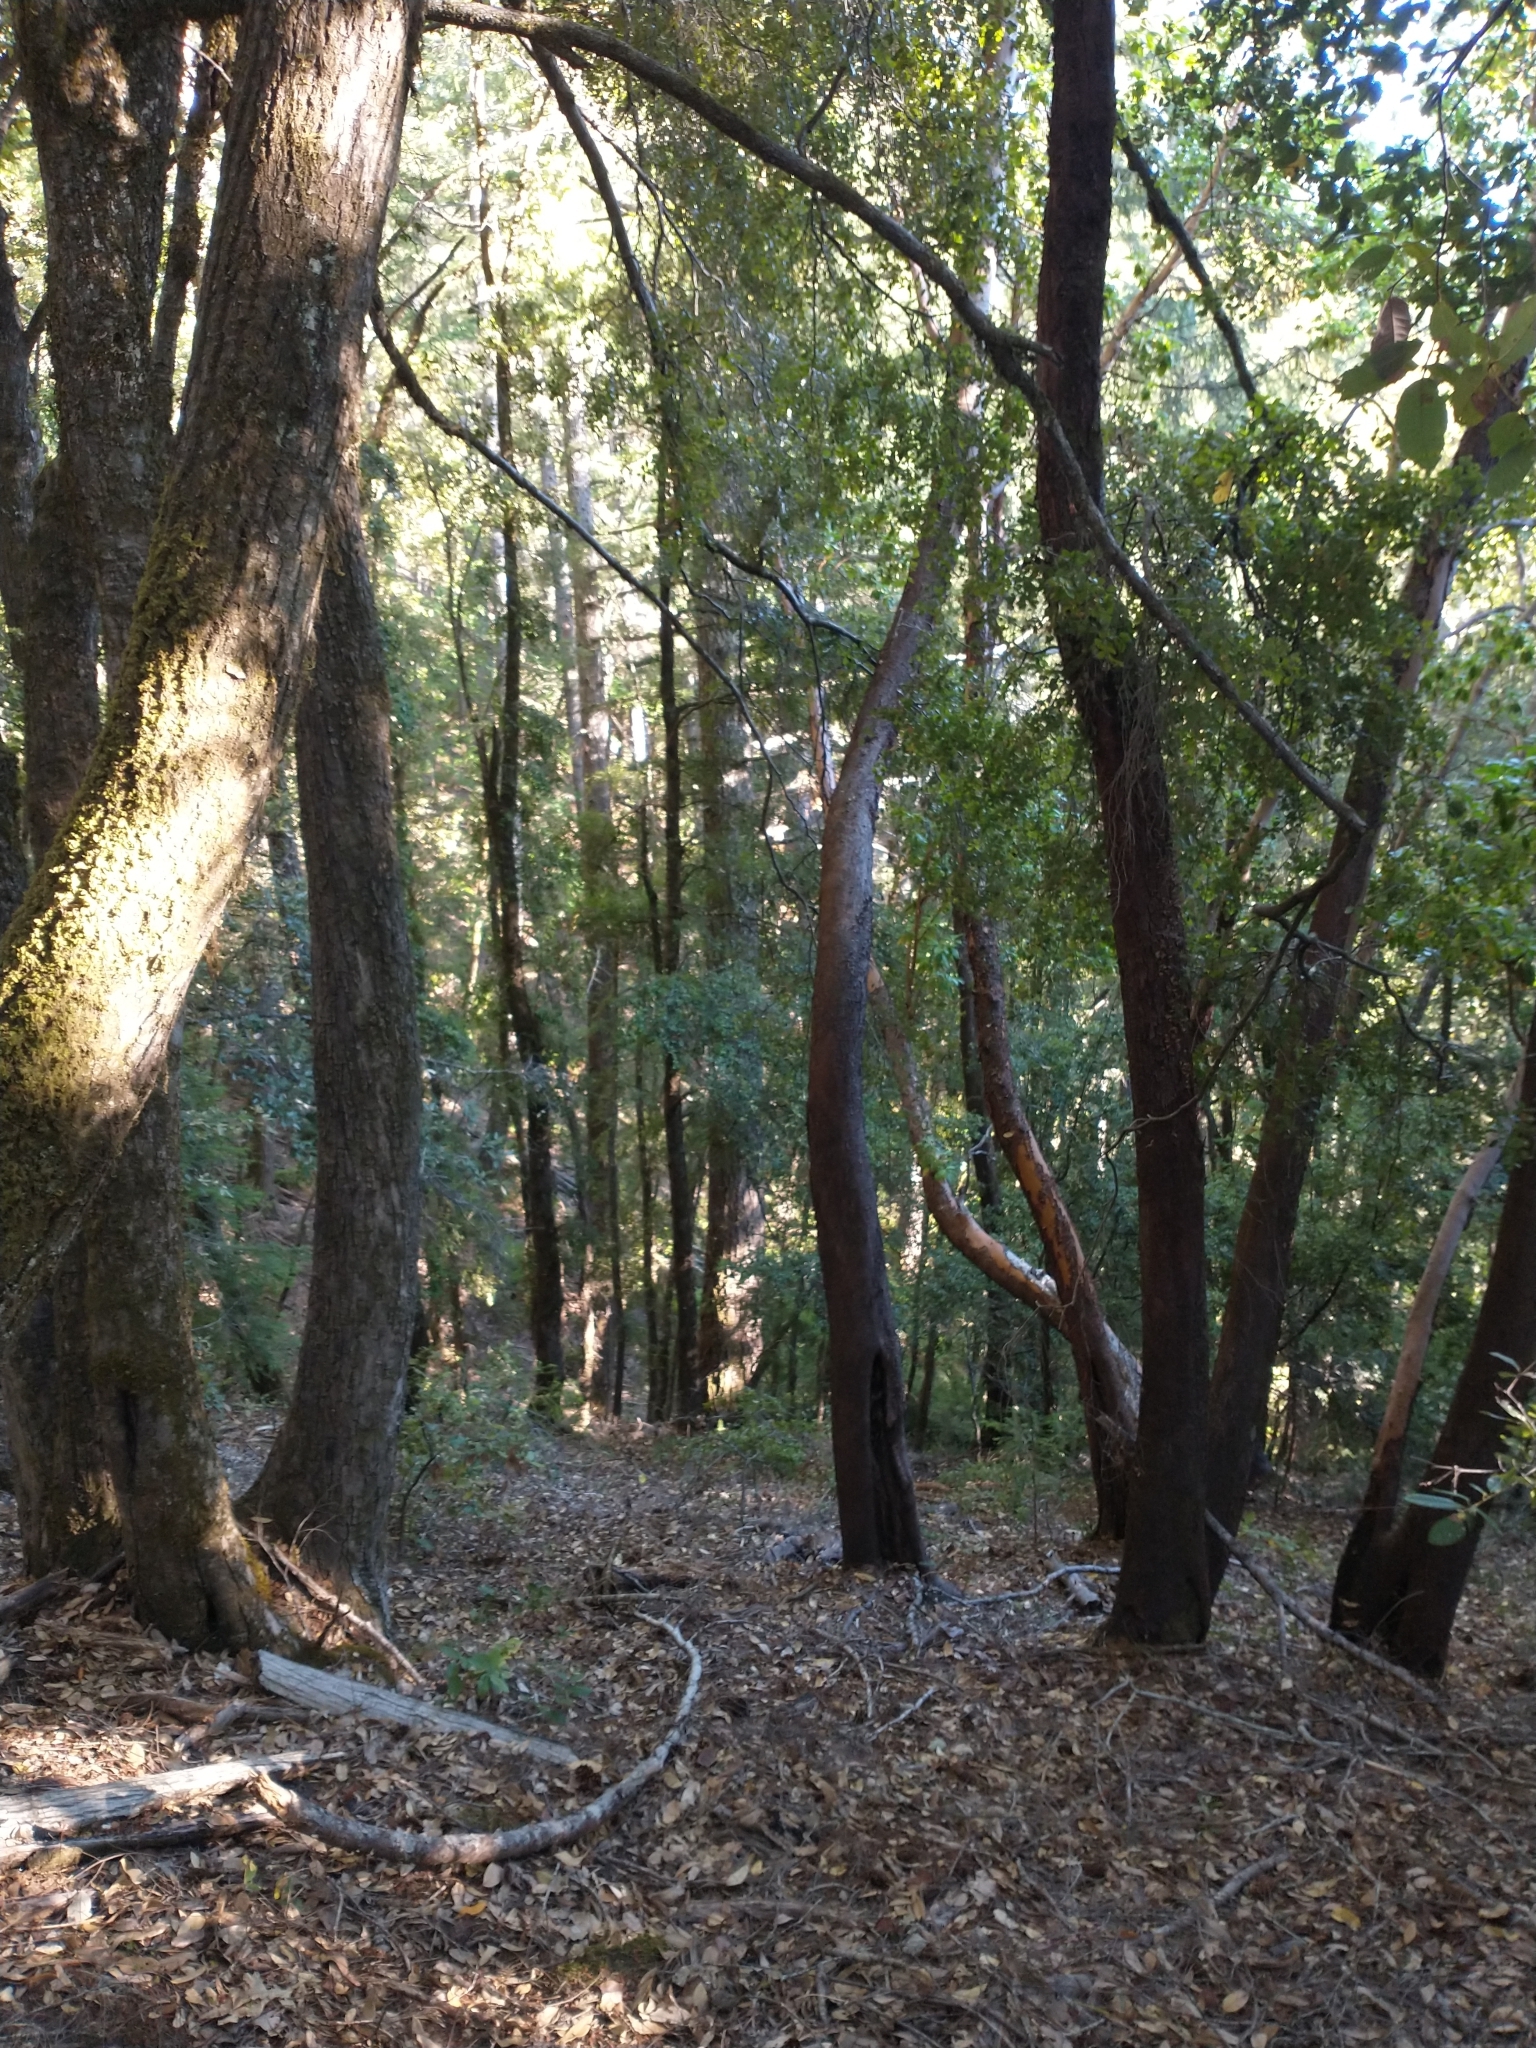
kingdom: Plantae
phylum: Tracheophyta
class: Magnoliopsida
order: Ericales
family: Ericaceae
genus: Arbutus
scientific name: Arbutus menziesii
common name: Pacific madrone
